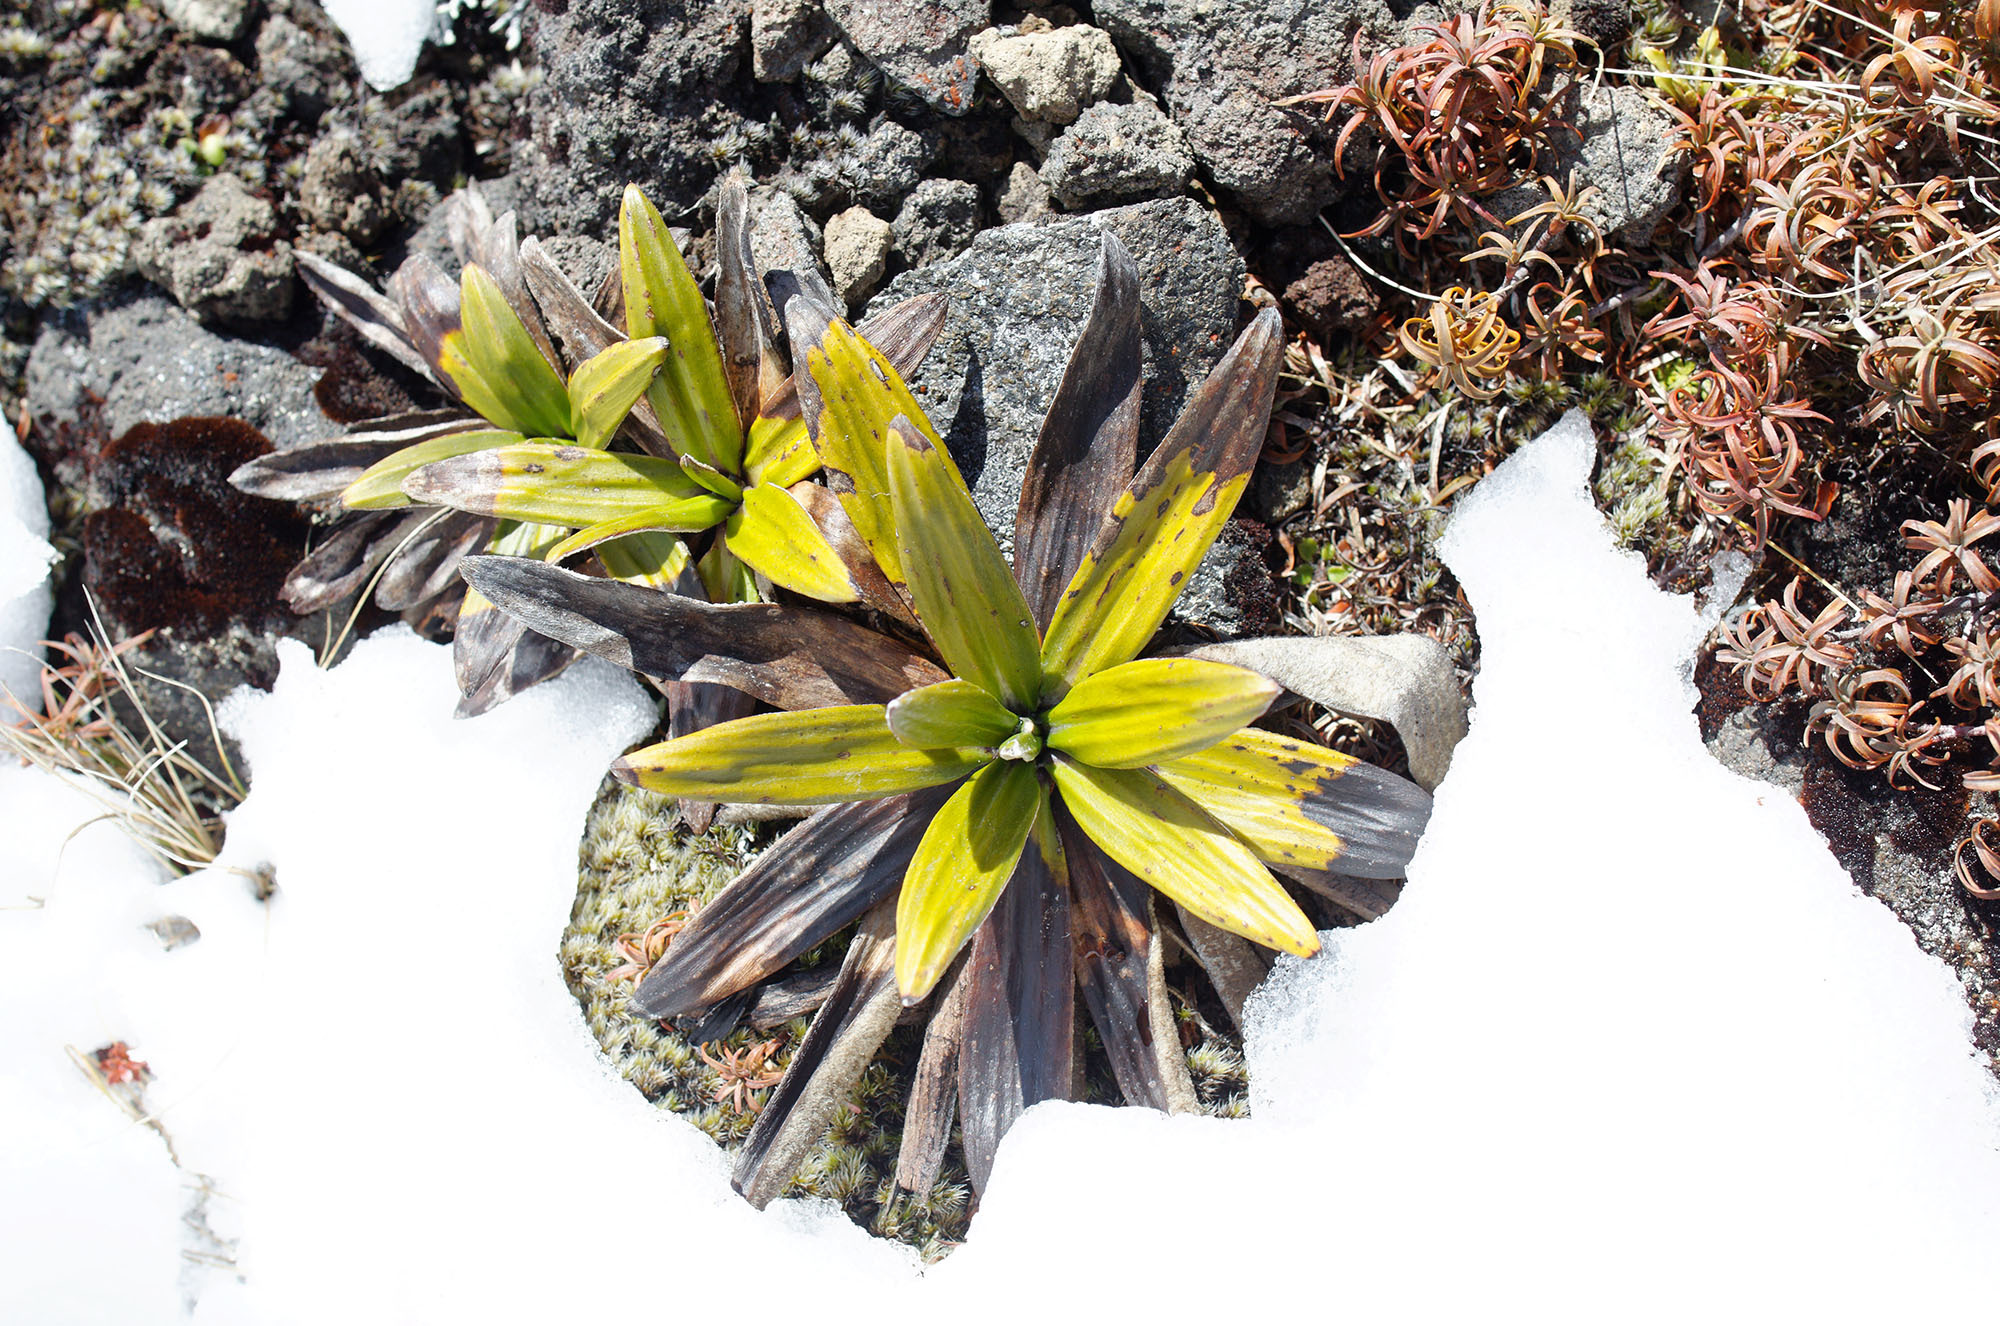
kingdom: Plantae
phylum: Tracheophyta
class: Magnoliopsida
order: Asterales
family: Asteraceae
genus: Celmisia
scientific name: Celmisia spectabilis
